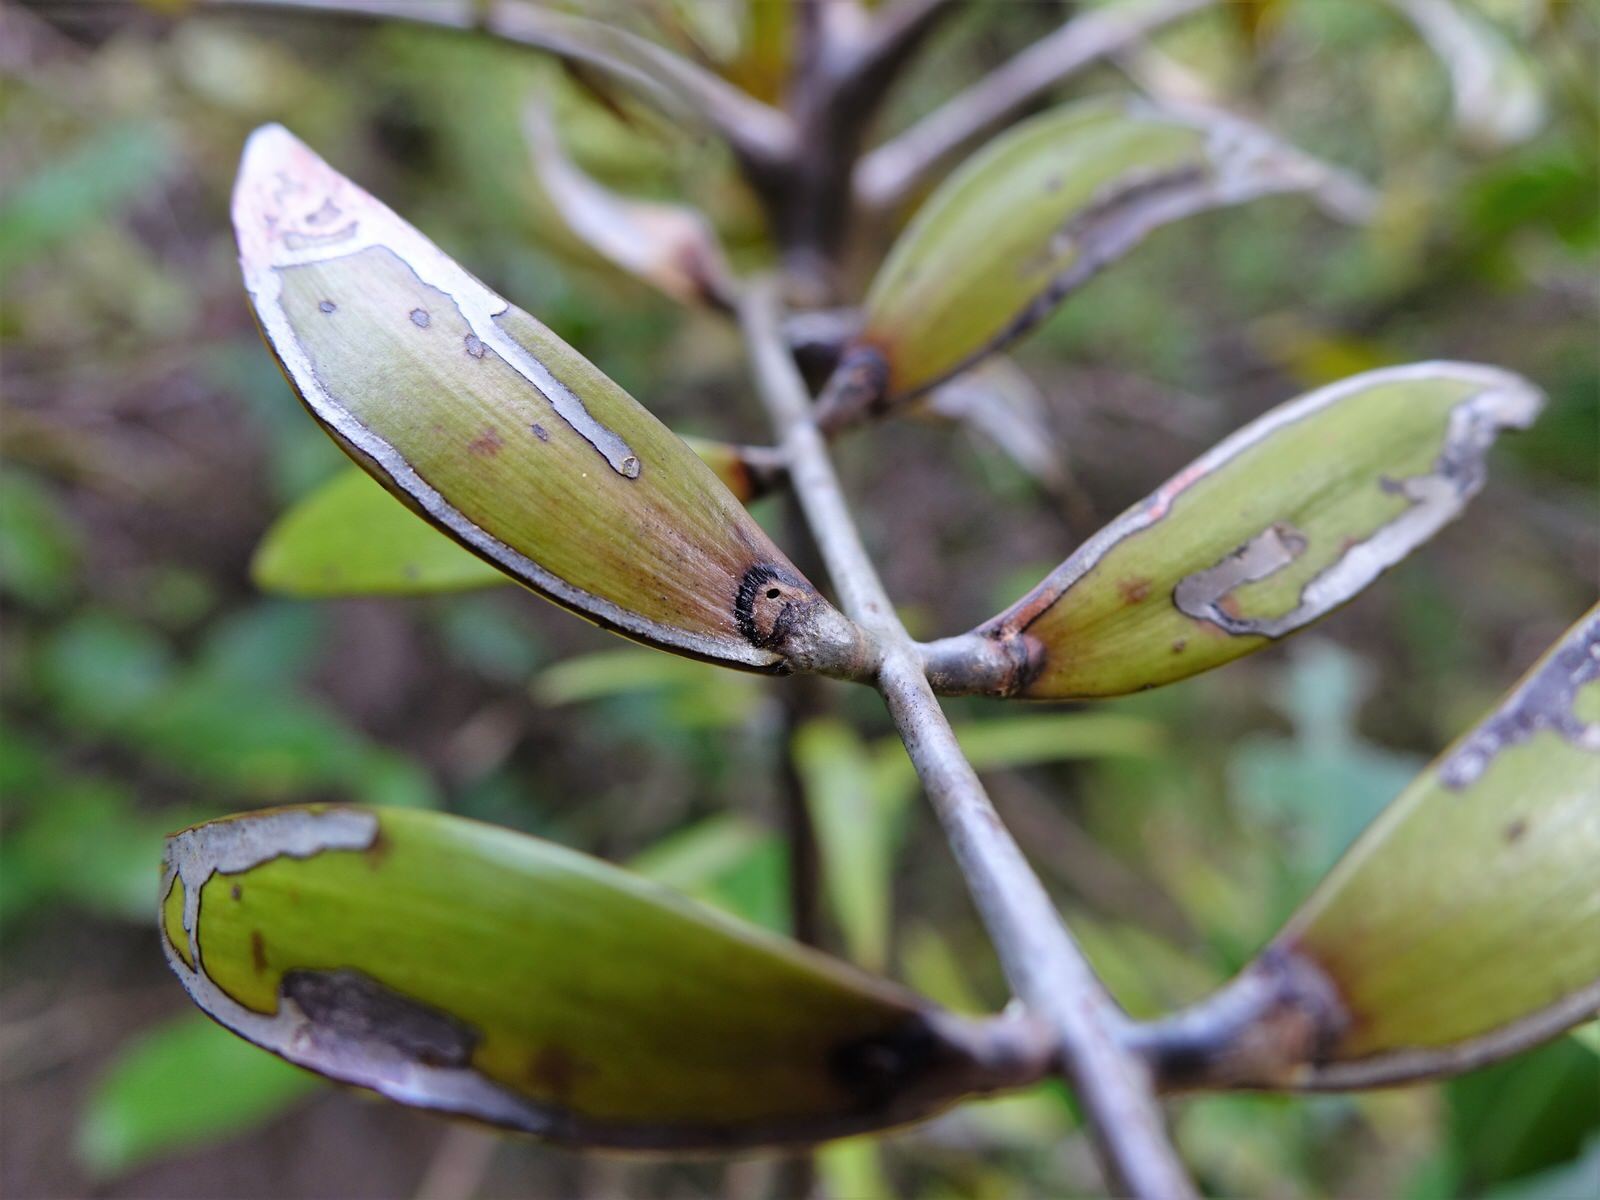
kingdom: Animalia
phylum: Arthropoda
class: Insecta
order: Lepidoptera
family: Gracillariidae
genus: Acrocercops
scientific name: Acrocercops leucotoma
